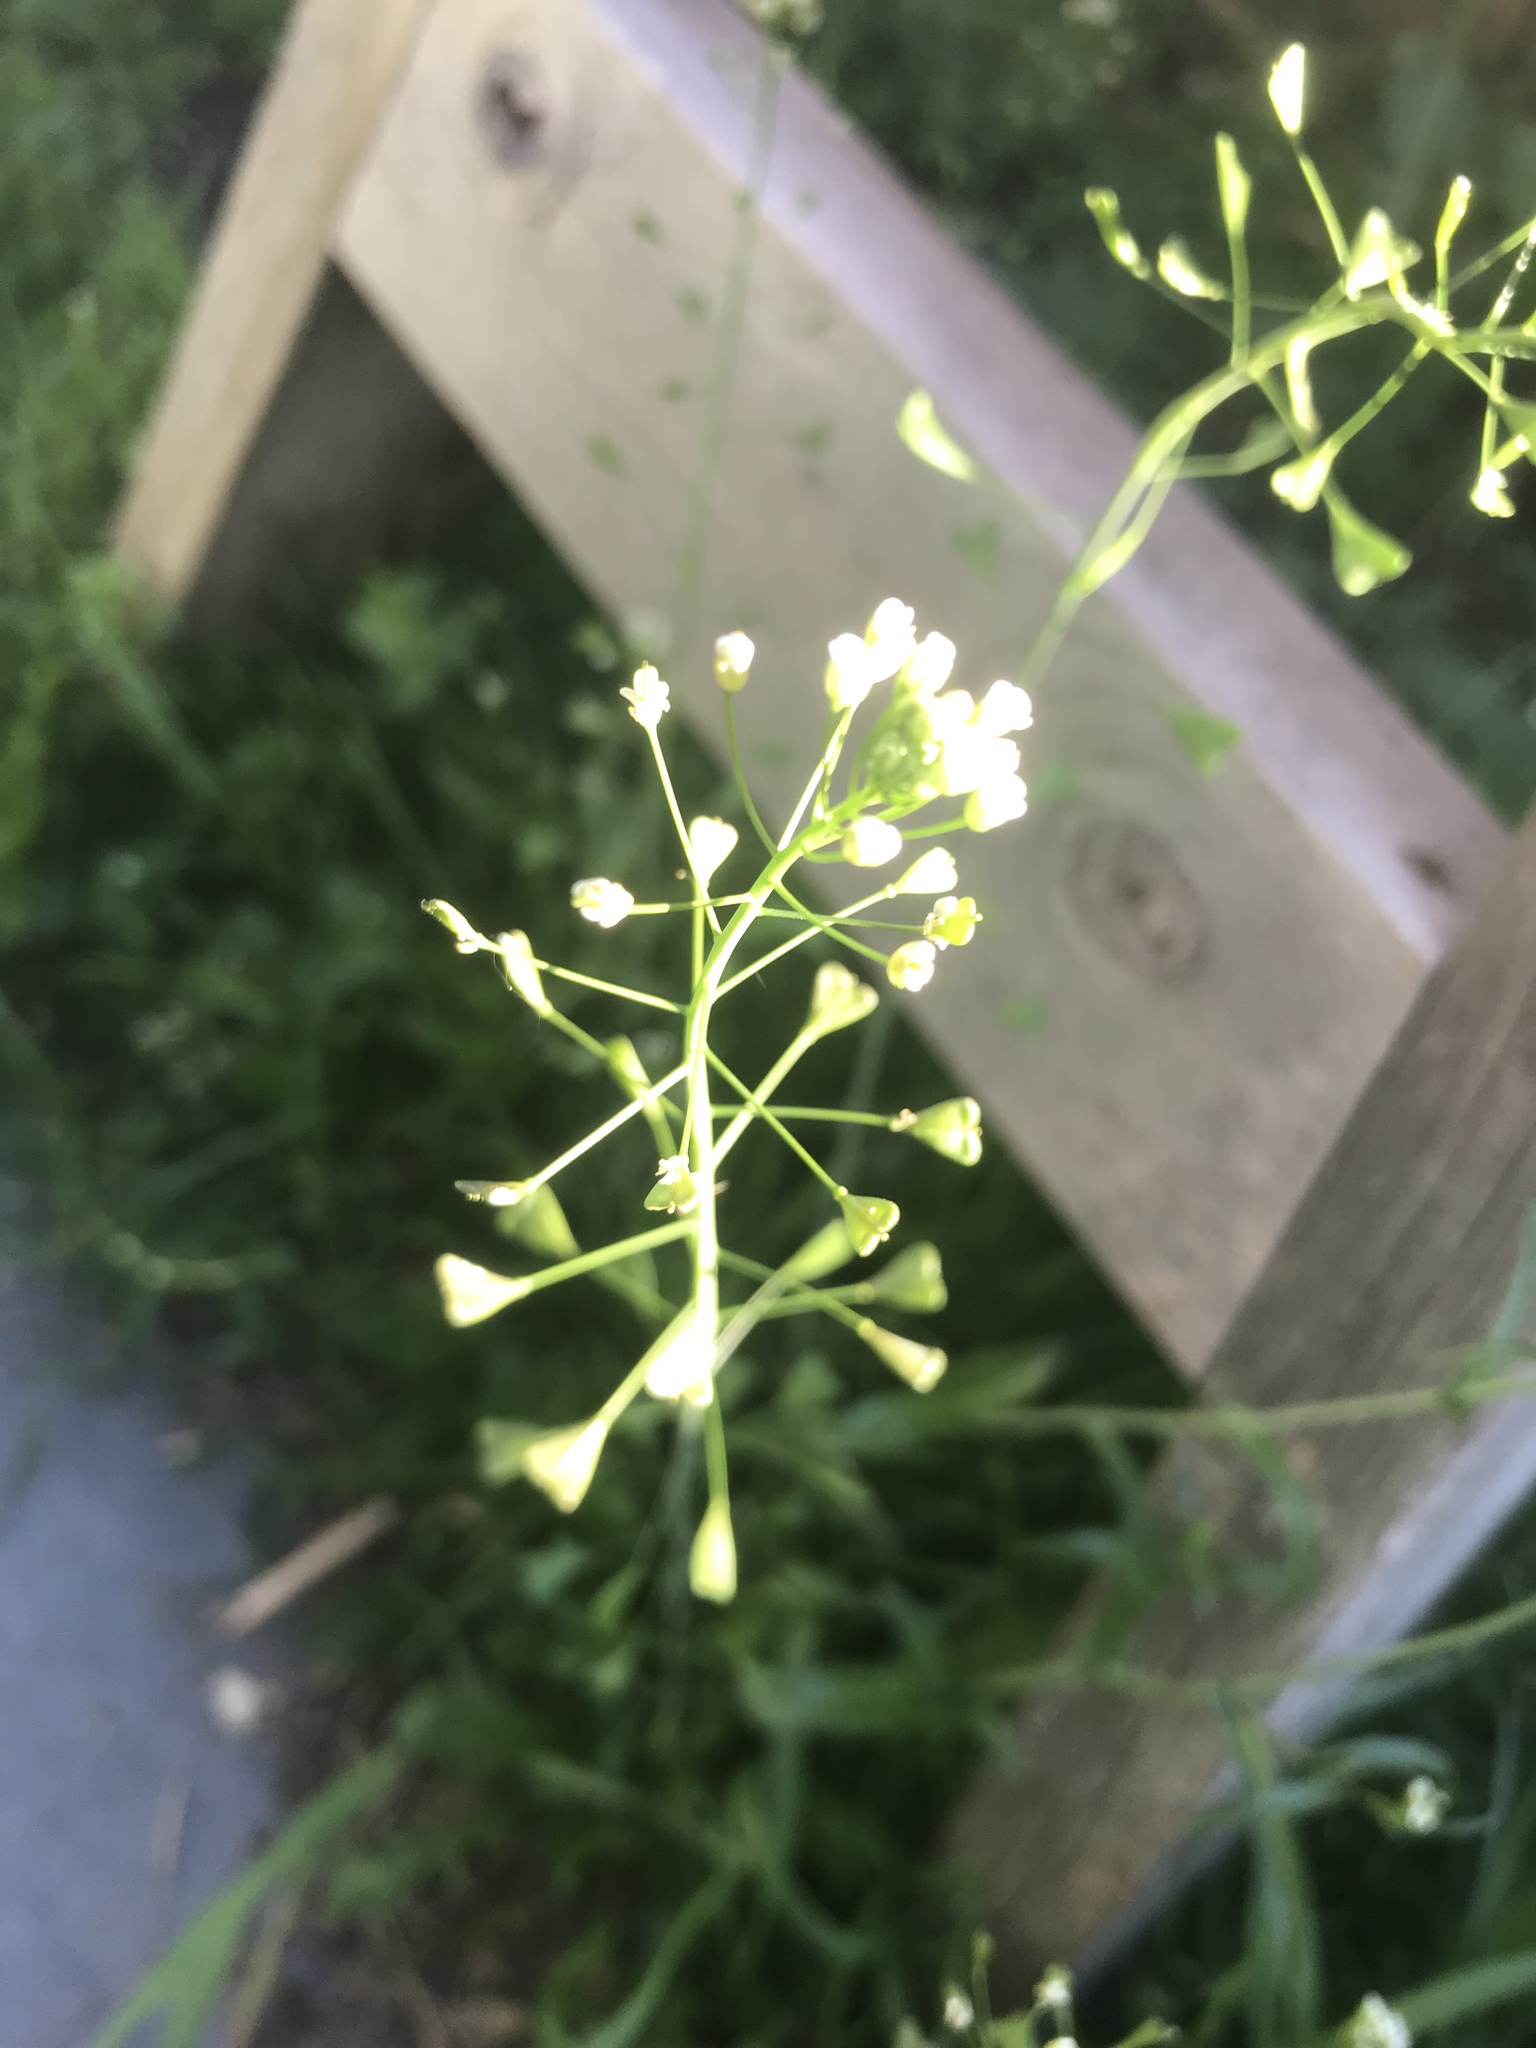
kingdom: Plantae
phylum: Tracheophyta
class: Magnoliopsida
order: Brassicales
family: Brassicaceae
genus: Capsella
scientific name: Capsella bursa-pastoris
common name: Shepherd's purse
